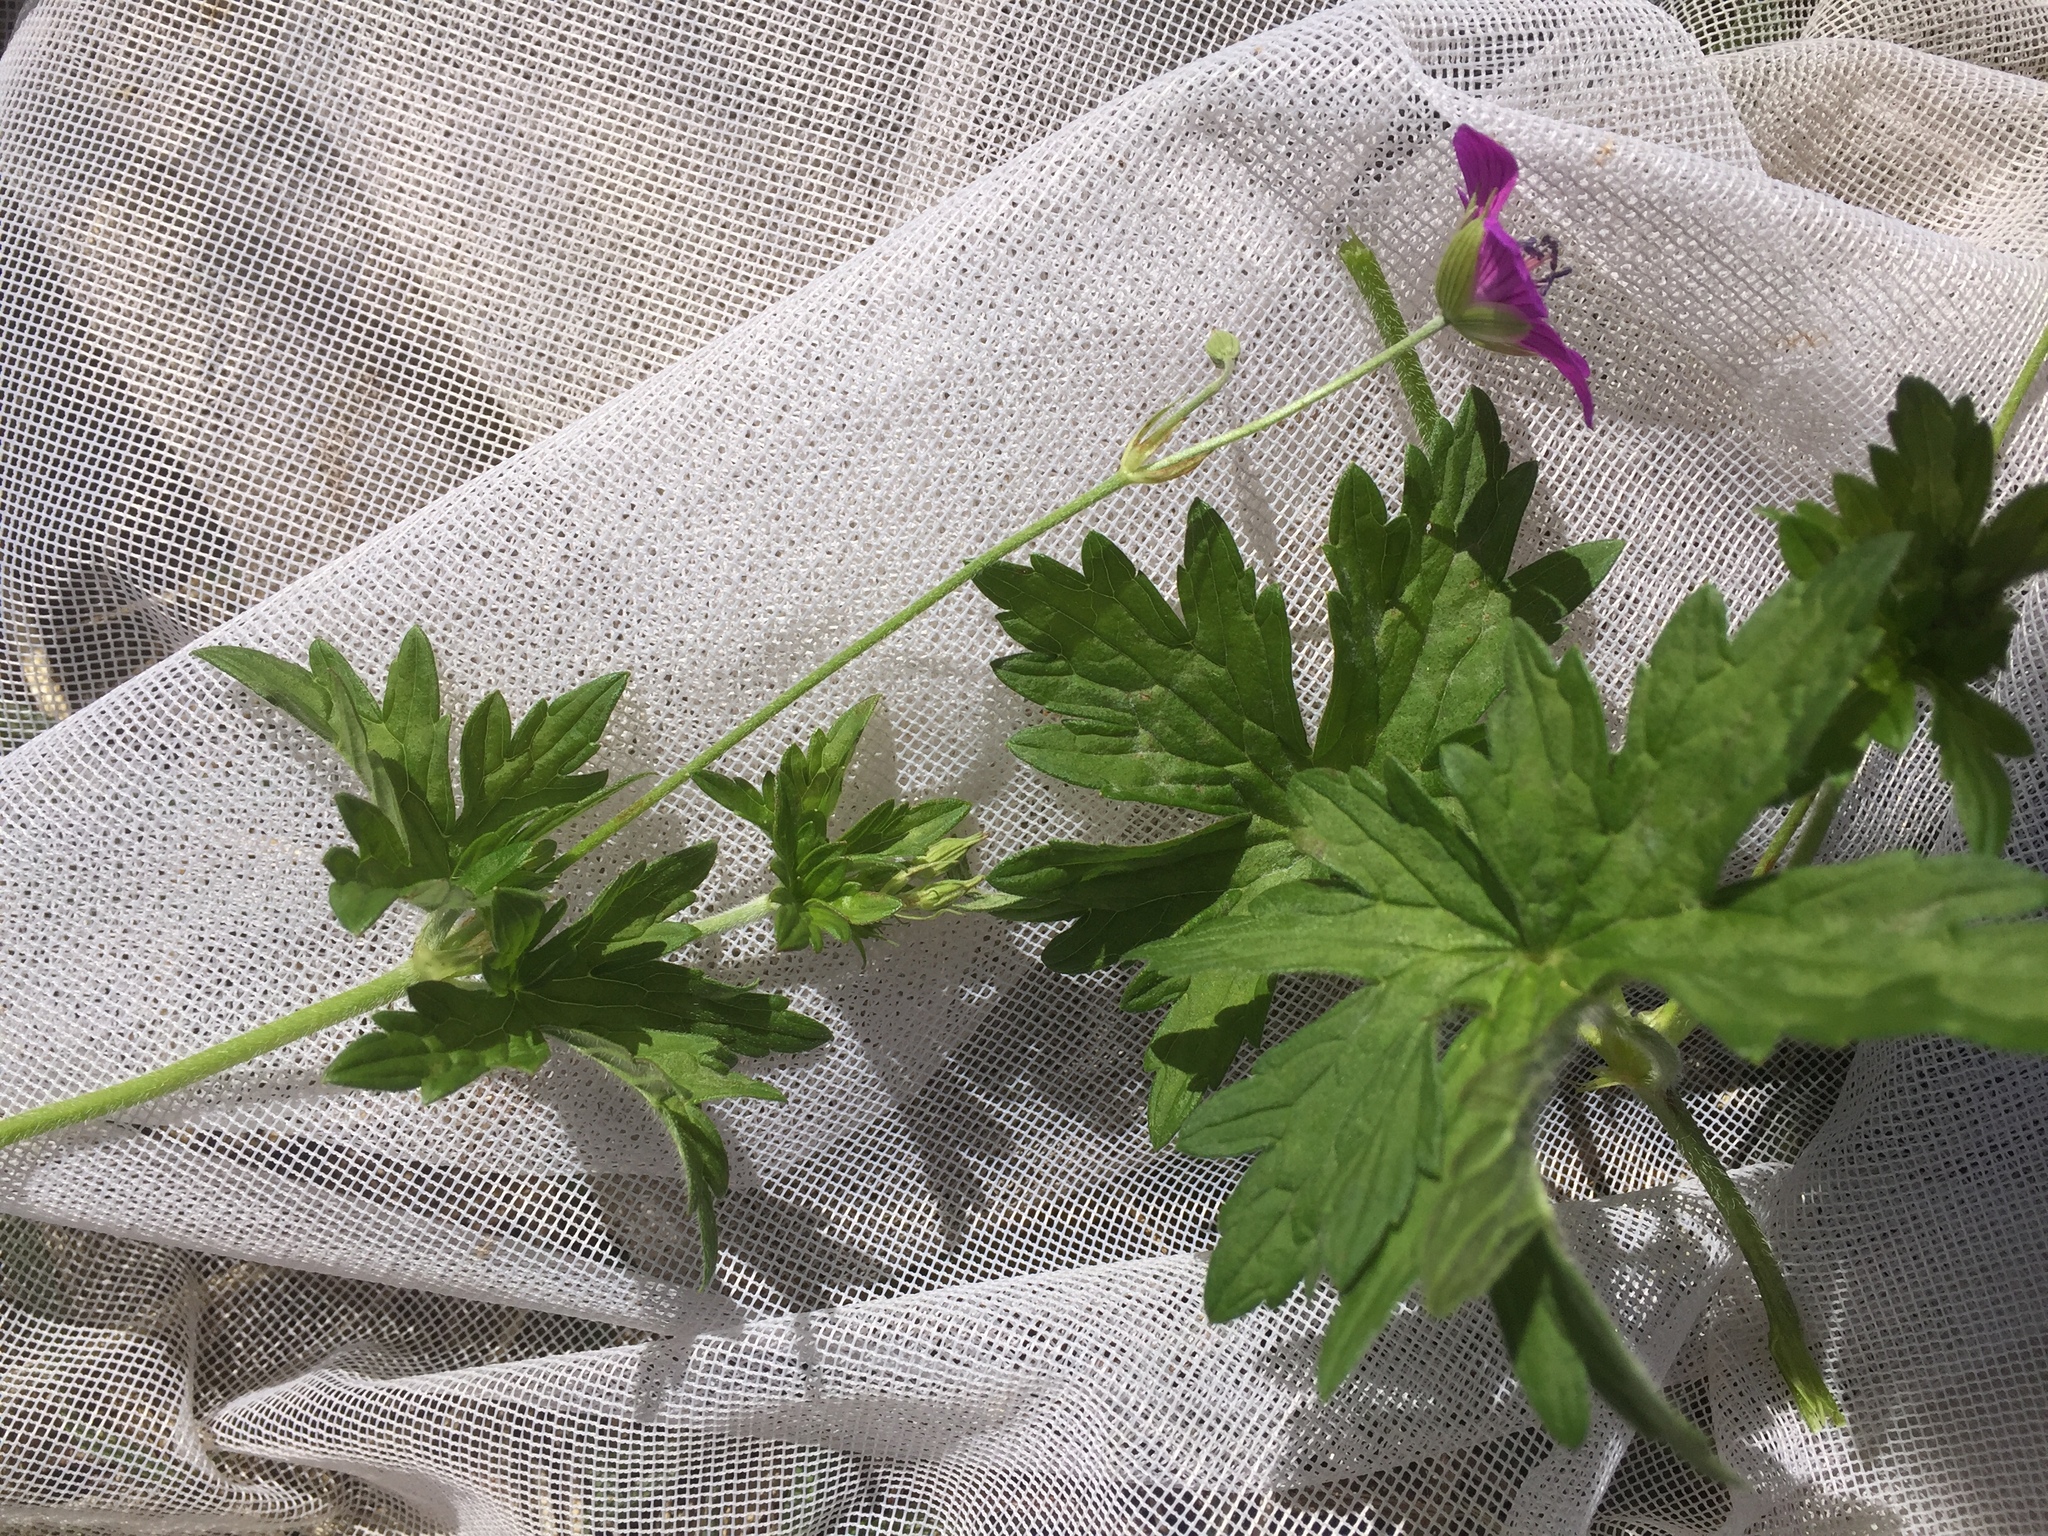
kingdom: Plantae
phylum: Tracheophyta
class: Magnoliopsida
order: Geraniales
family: Geraniaceae
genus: Geranium
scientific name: Geranium palustre
